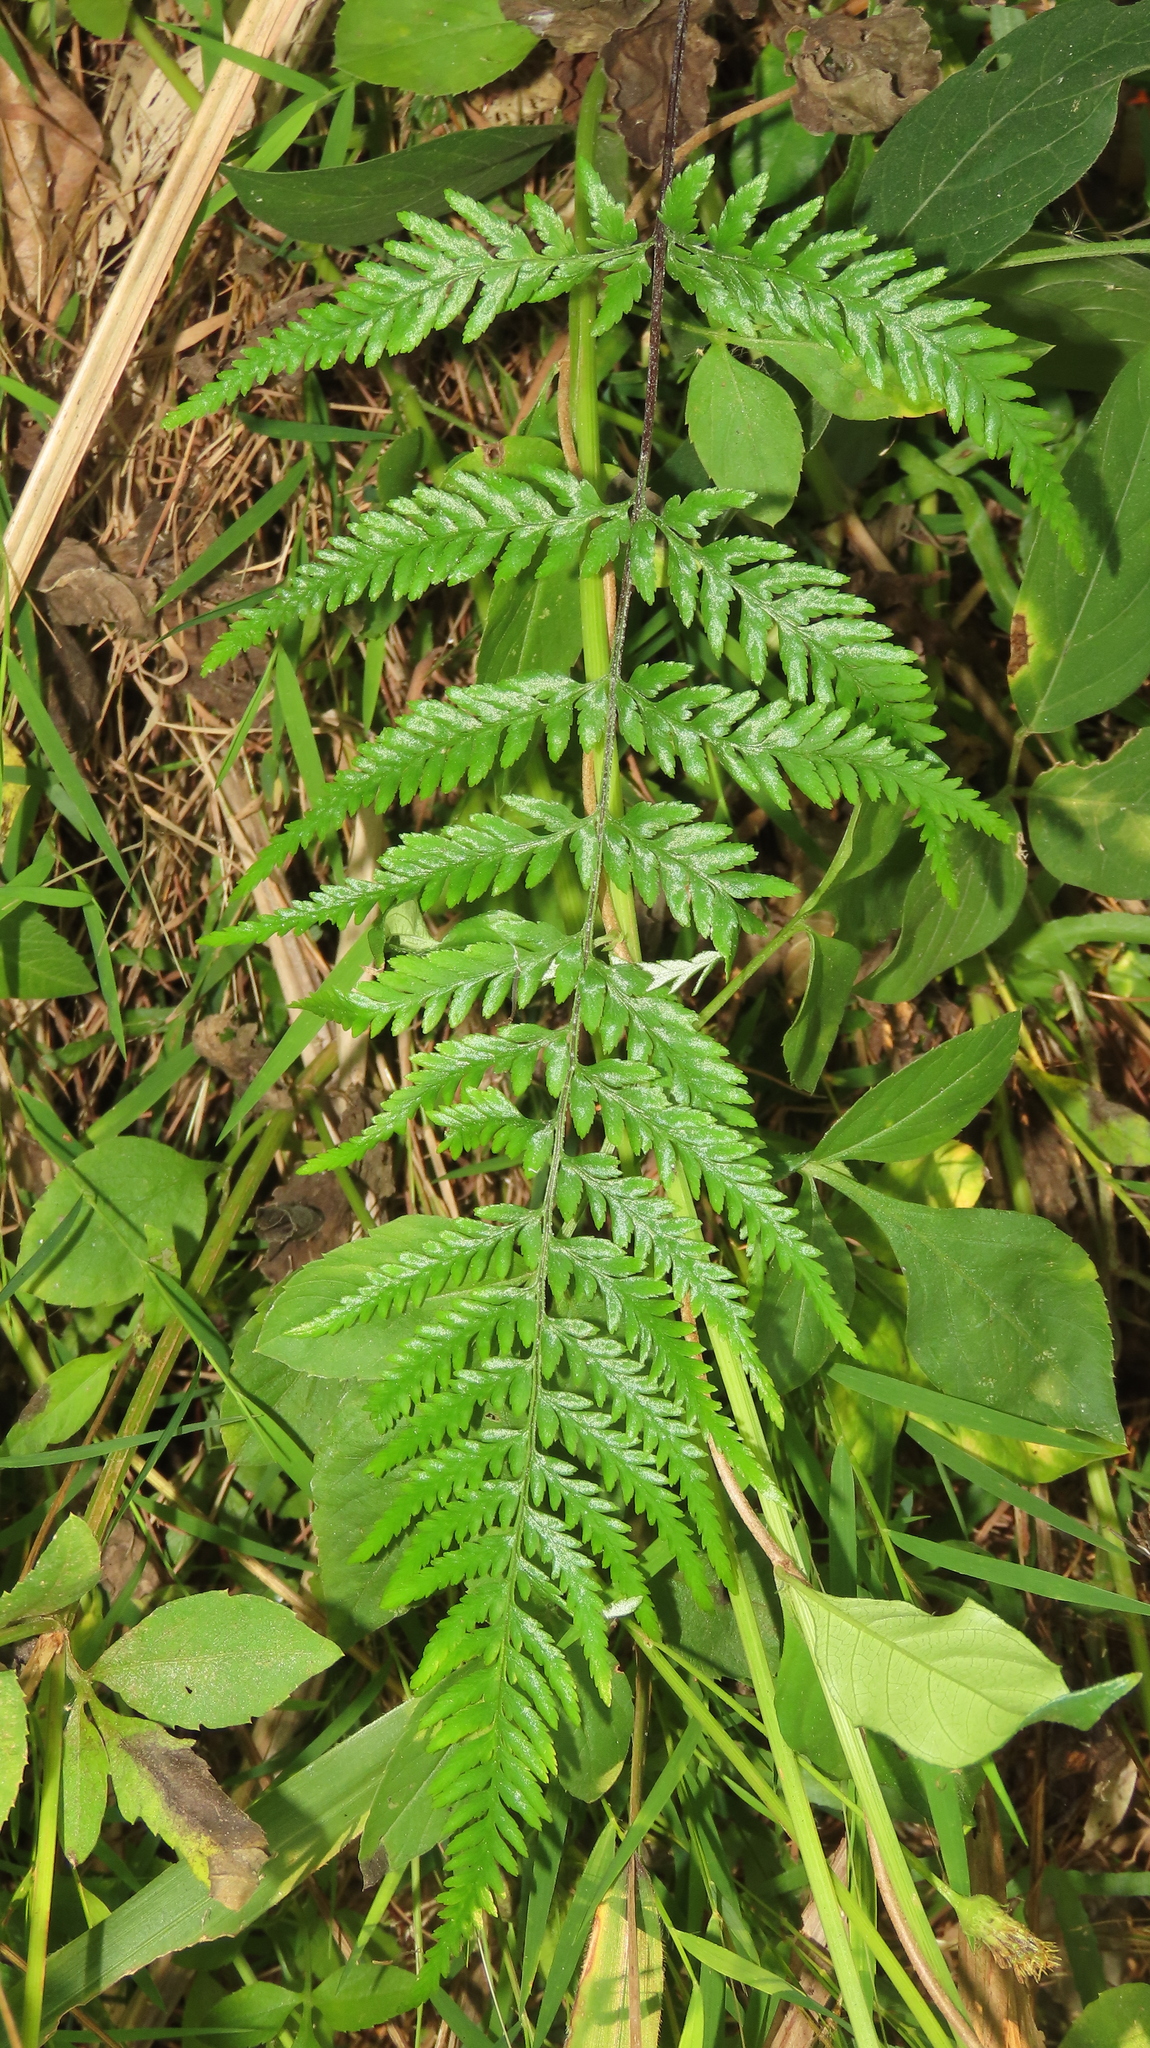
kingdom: Plantae
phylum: Tracheophyta
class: Polypodiopsida
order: Polypodiales
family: Pteridaceae
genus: Pityrogramma
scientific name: Pityrogramma calomelanos
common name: Dixie silverback fern
